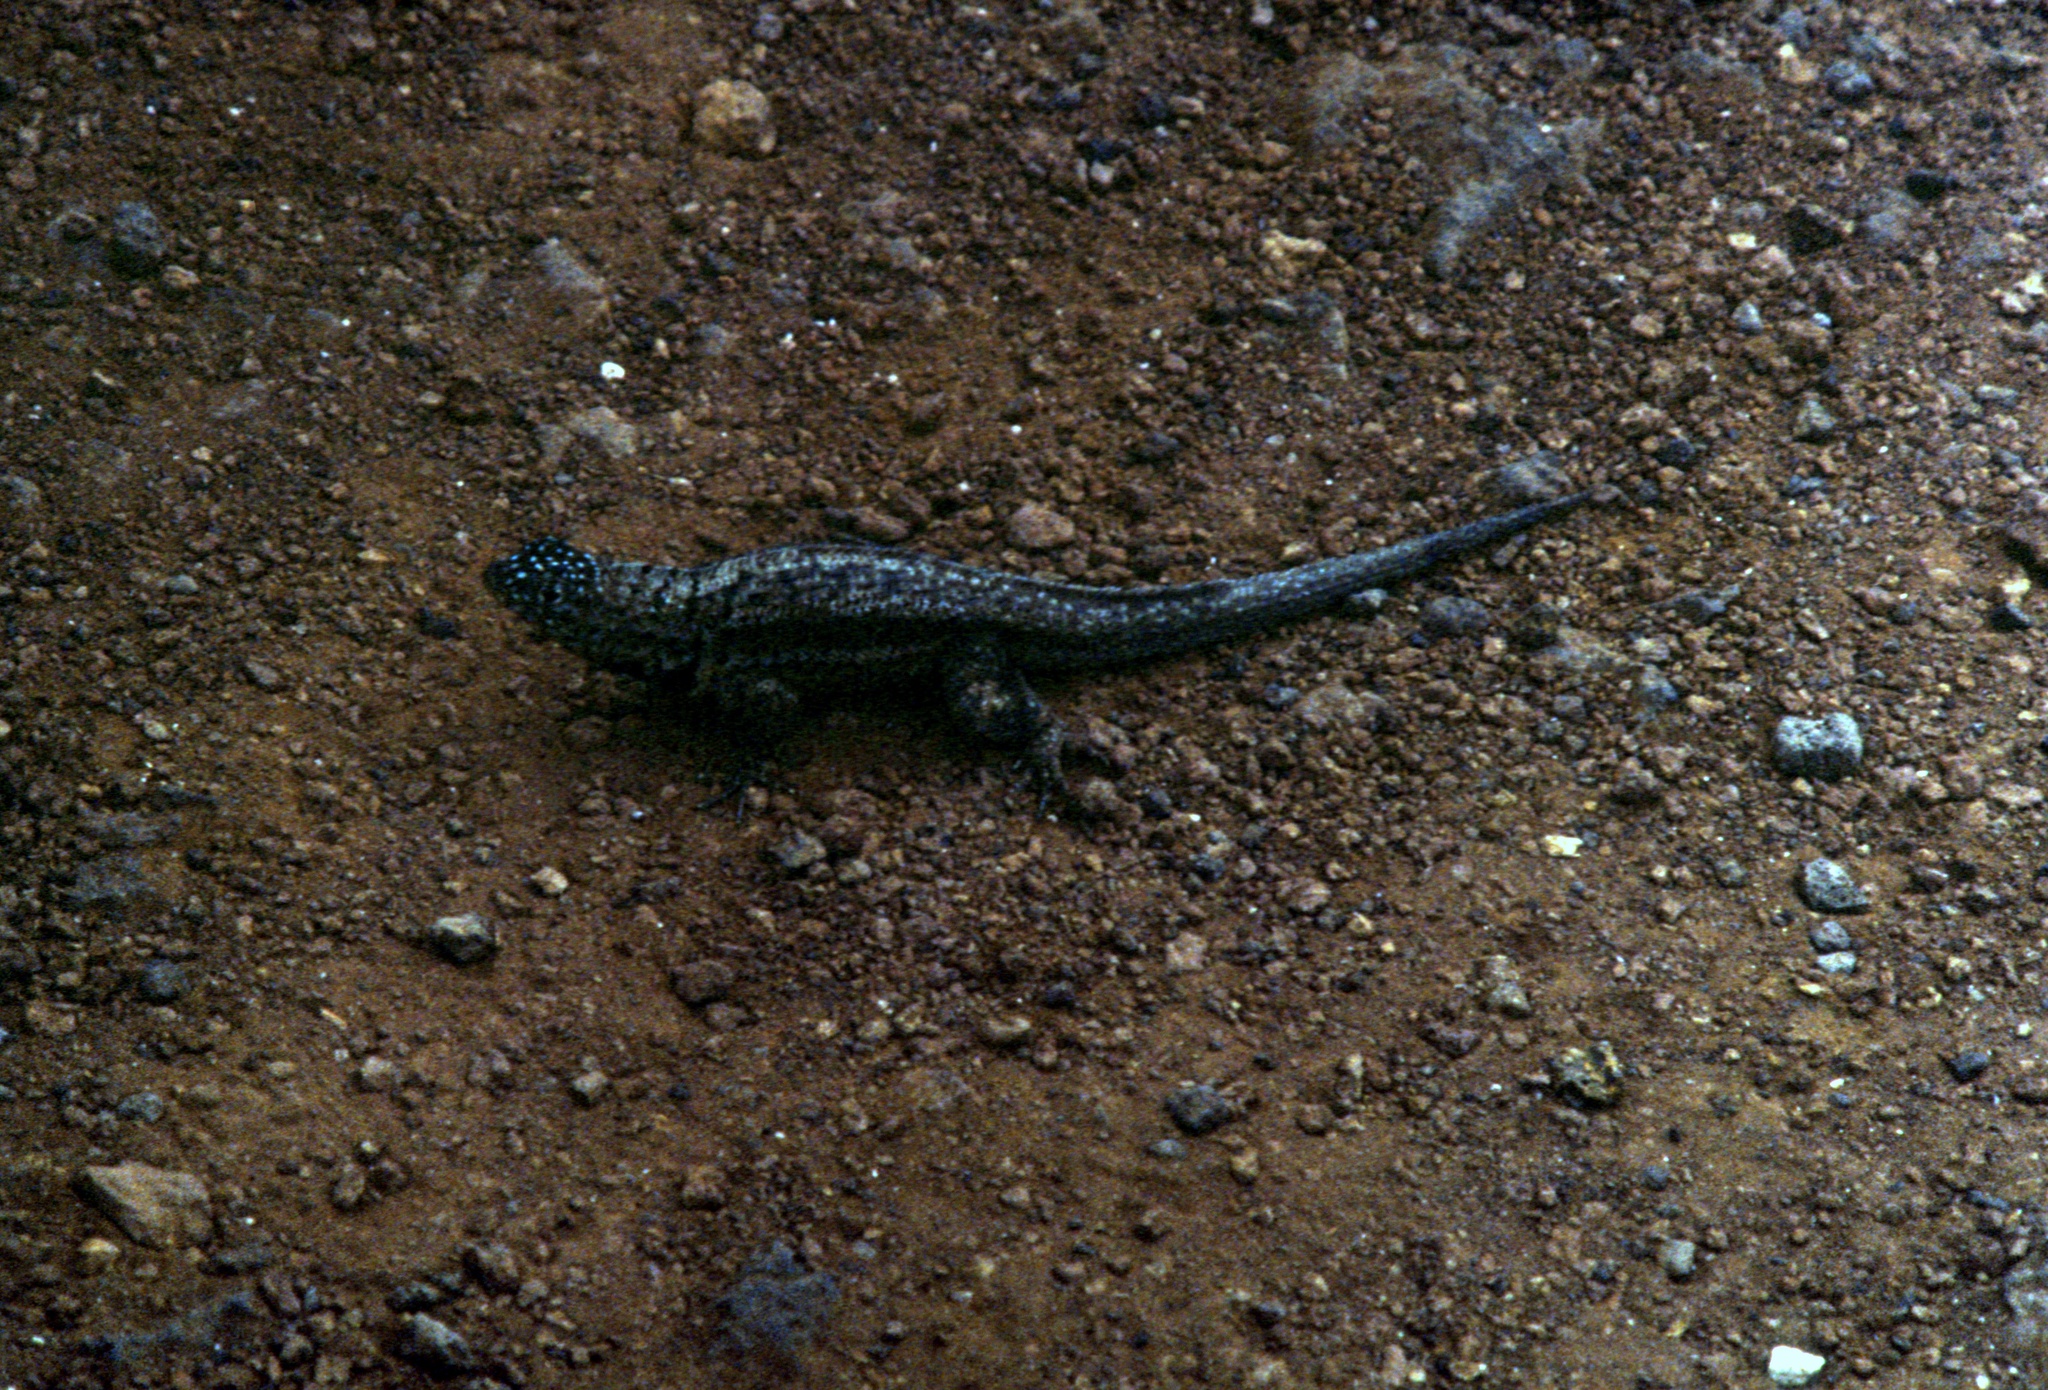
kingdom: Animalia
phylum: Chordata
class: Squamata
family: Tropiduridae
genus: Microlophus
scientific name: Microlophus indefatigabilis
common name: Galapagos lava lizard
